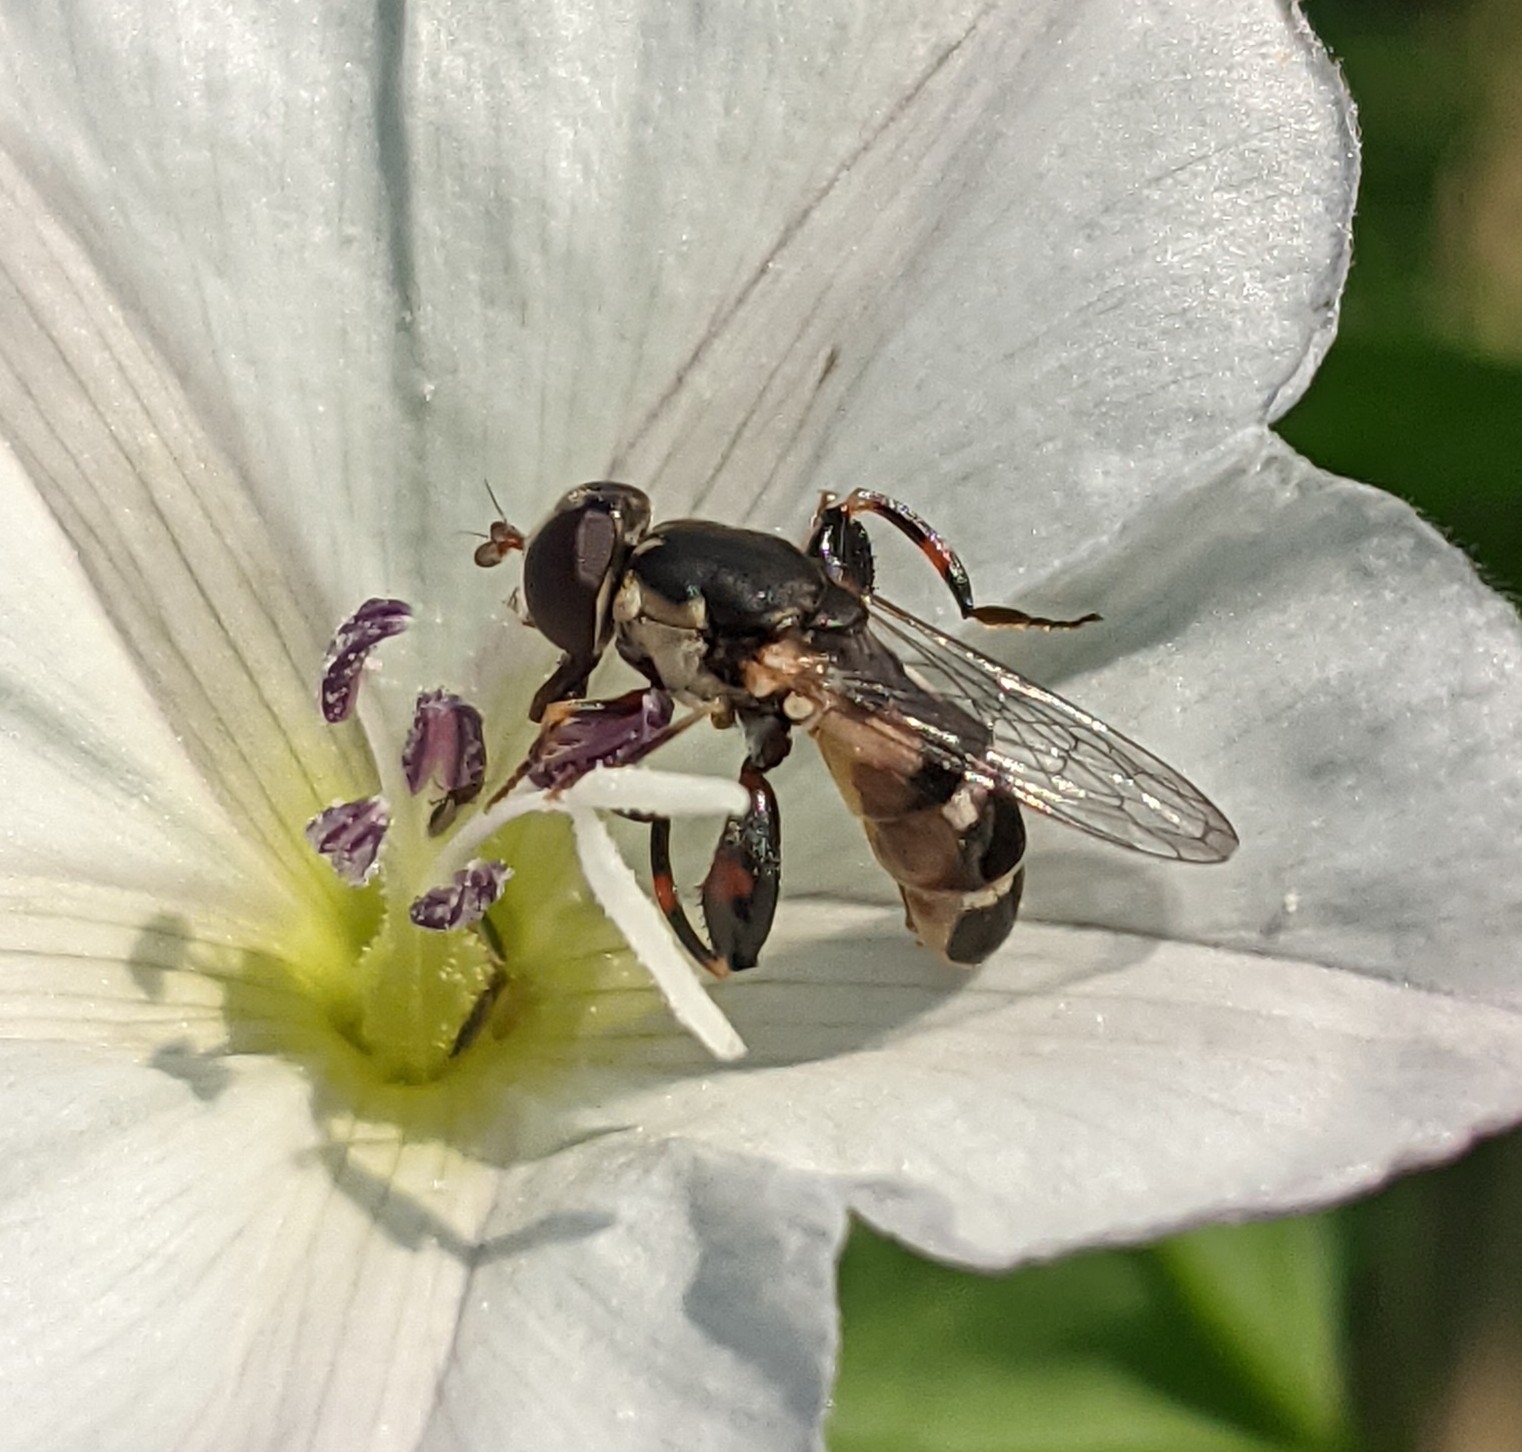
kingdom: Animalia
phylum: Arthropoda
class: Insecta
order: Diptera
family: Syrphidae
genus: Syritta
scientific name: Syritta pipiens
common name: Hover fly
